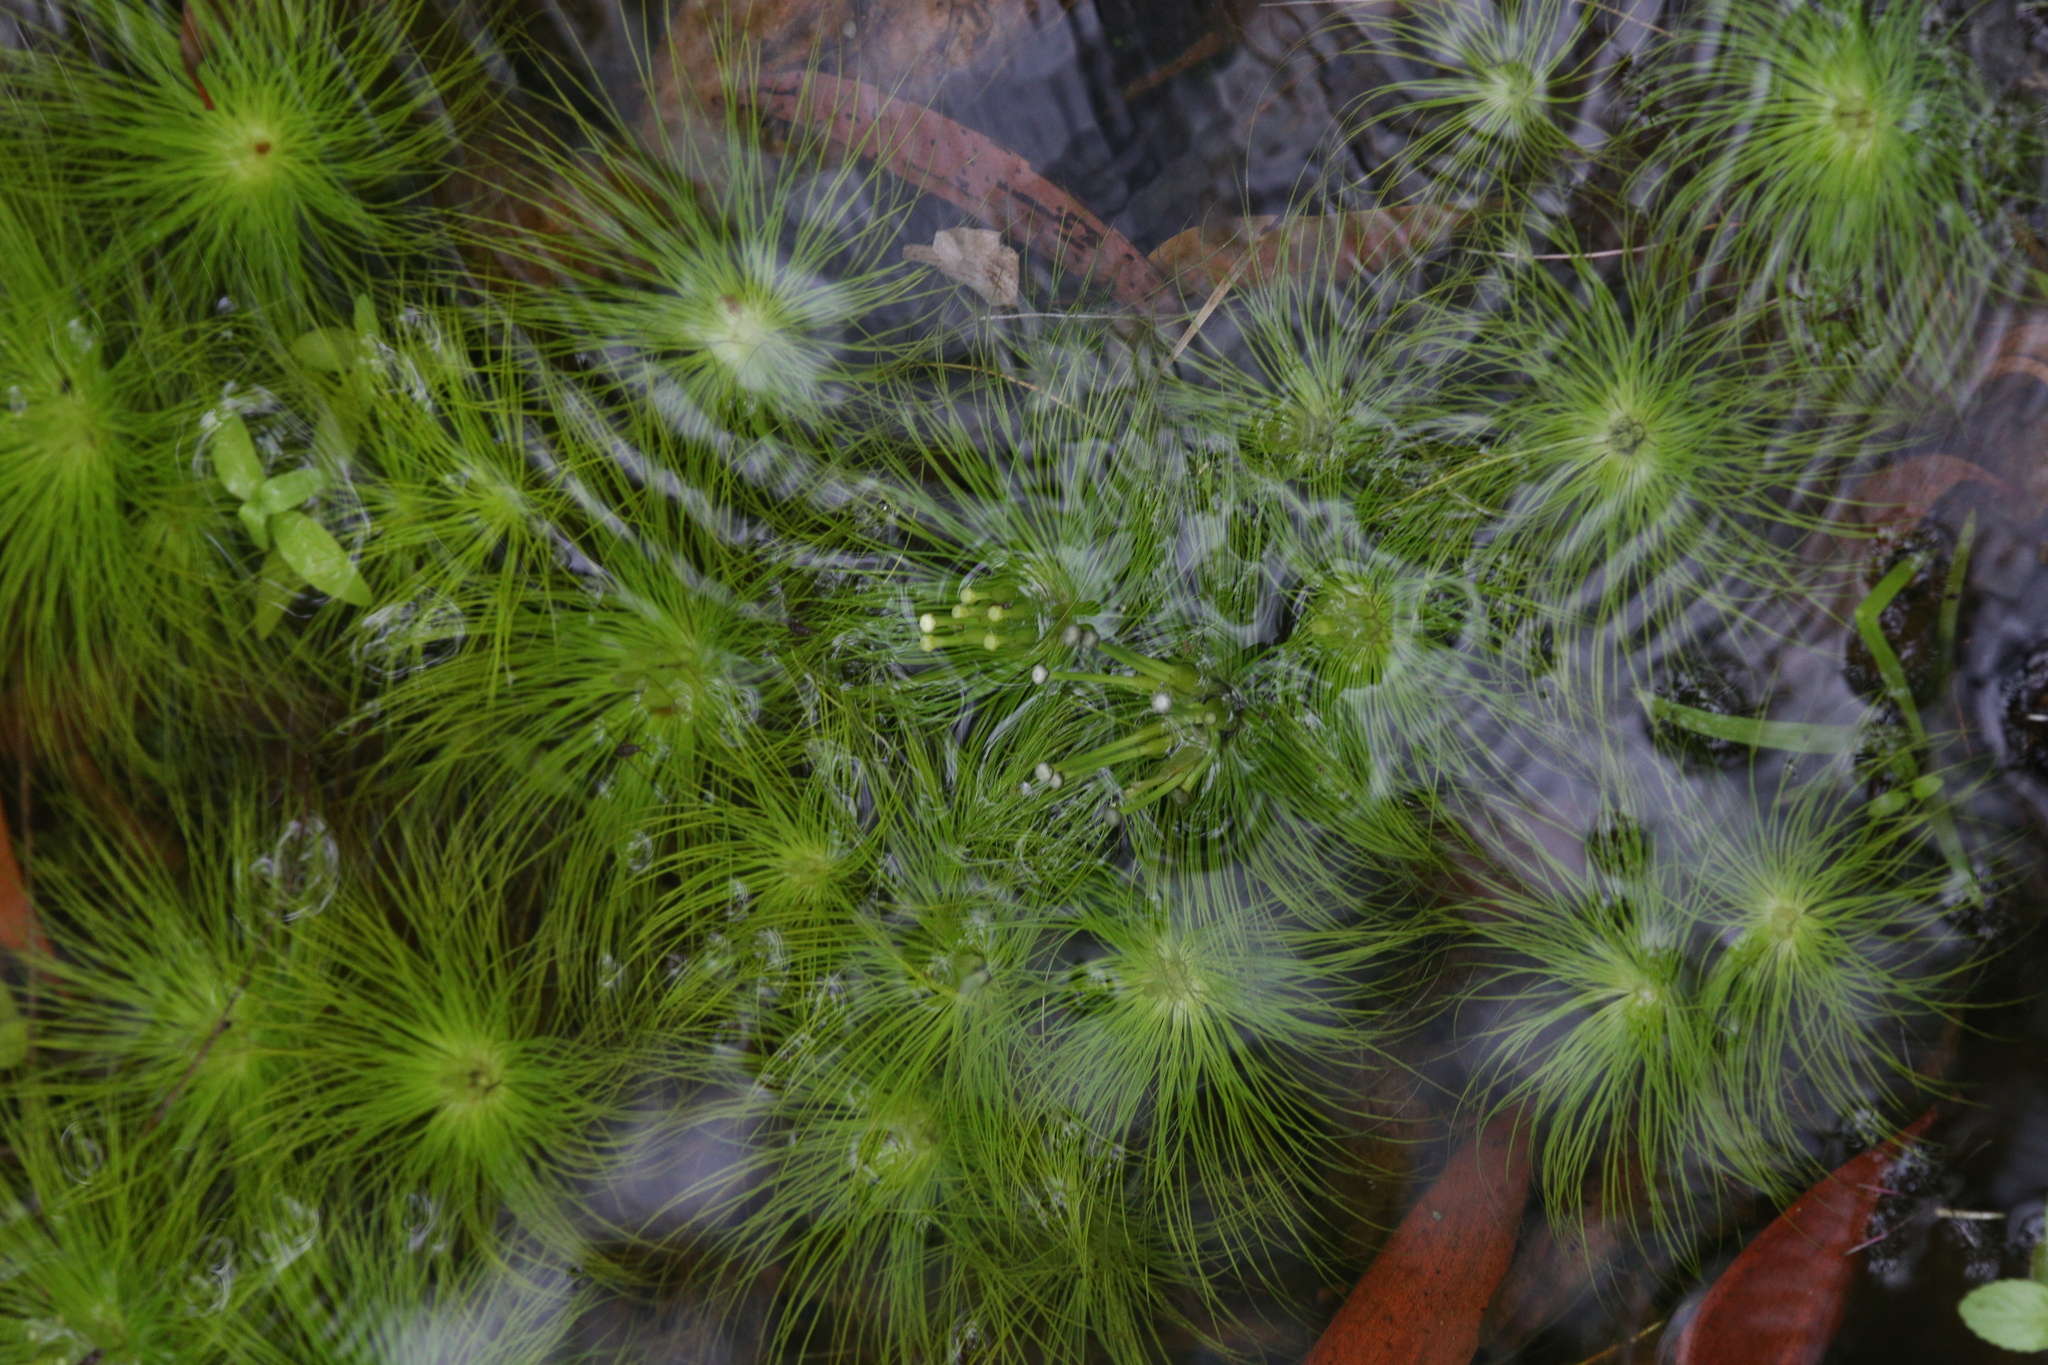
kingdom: Plantae
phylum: Tracheophyta
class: Liliopsida
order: Poales
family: Eriocaulaceae
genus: Eriocaulon
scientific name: Eriocaulon setaceum
